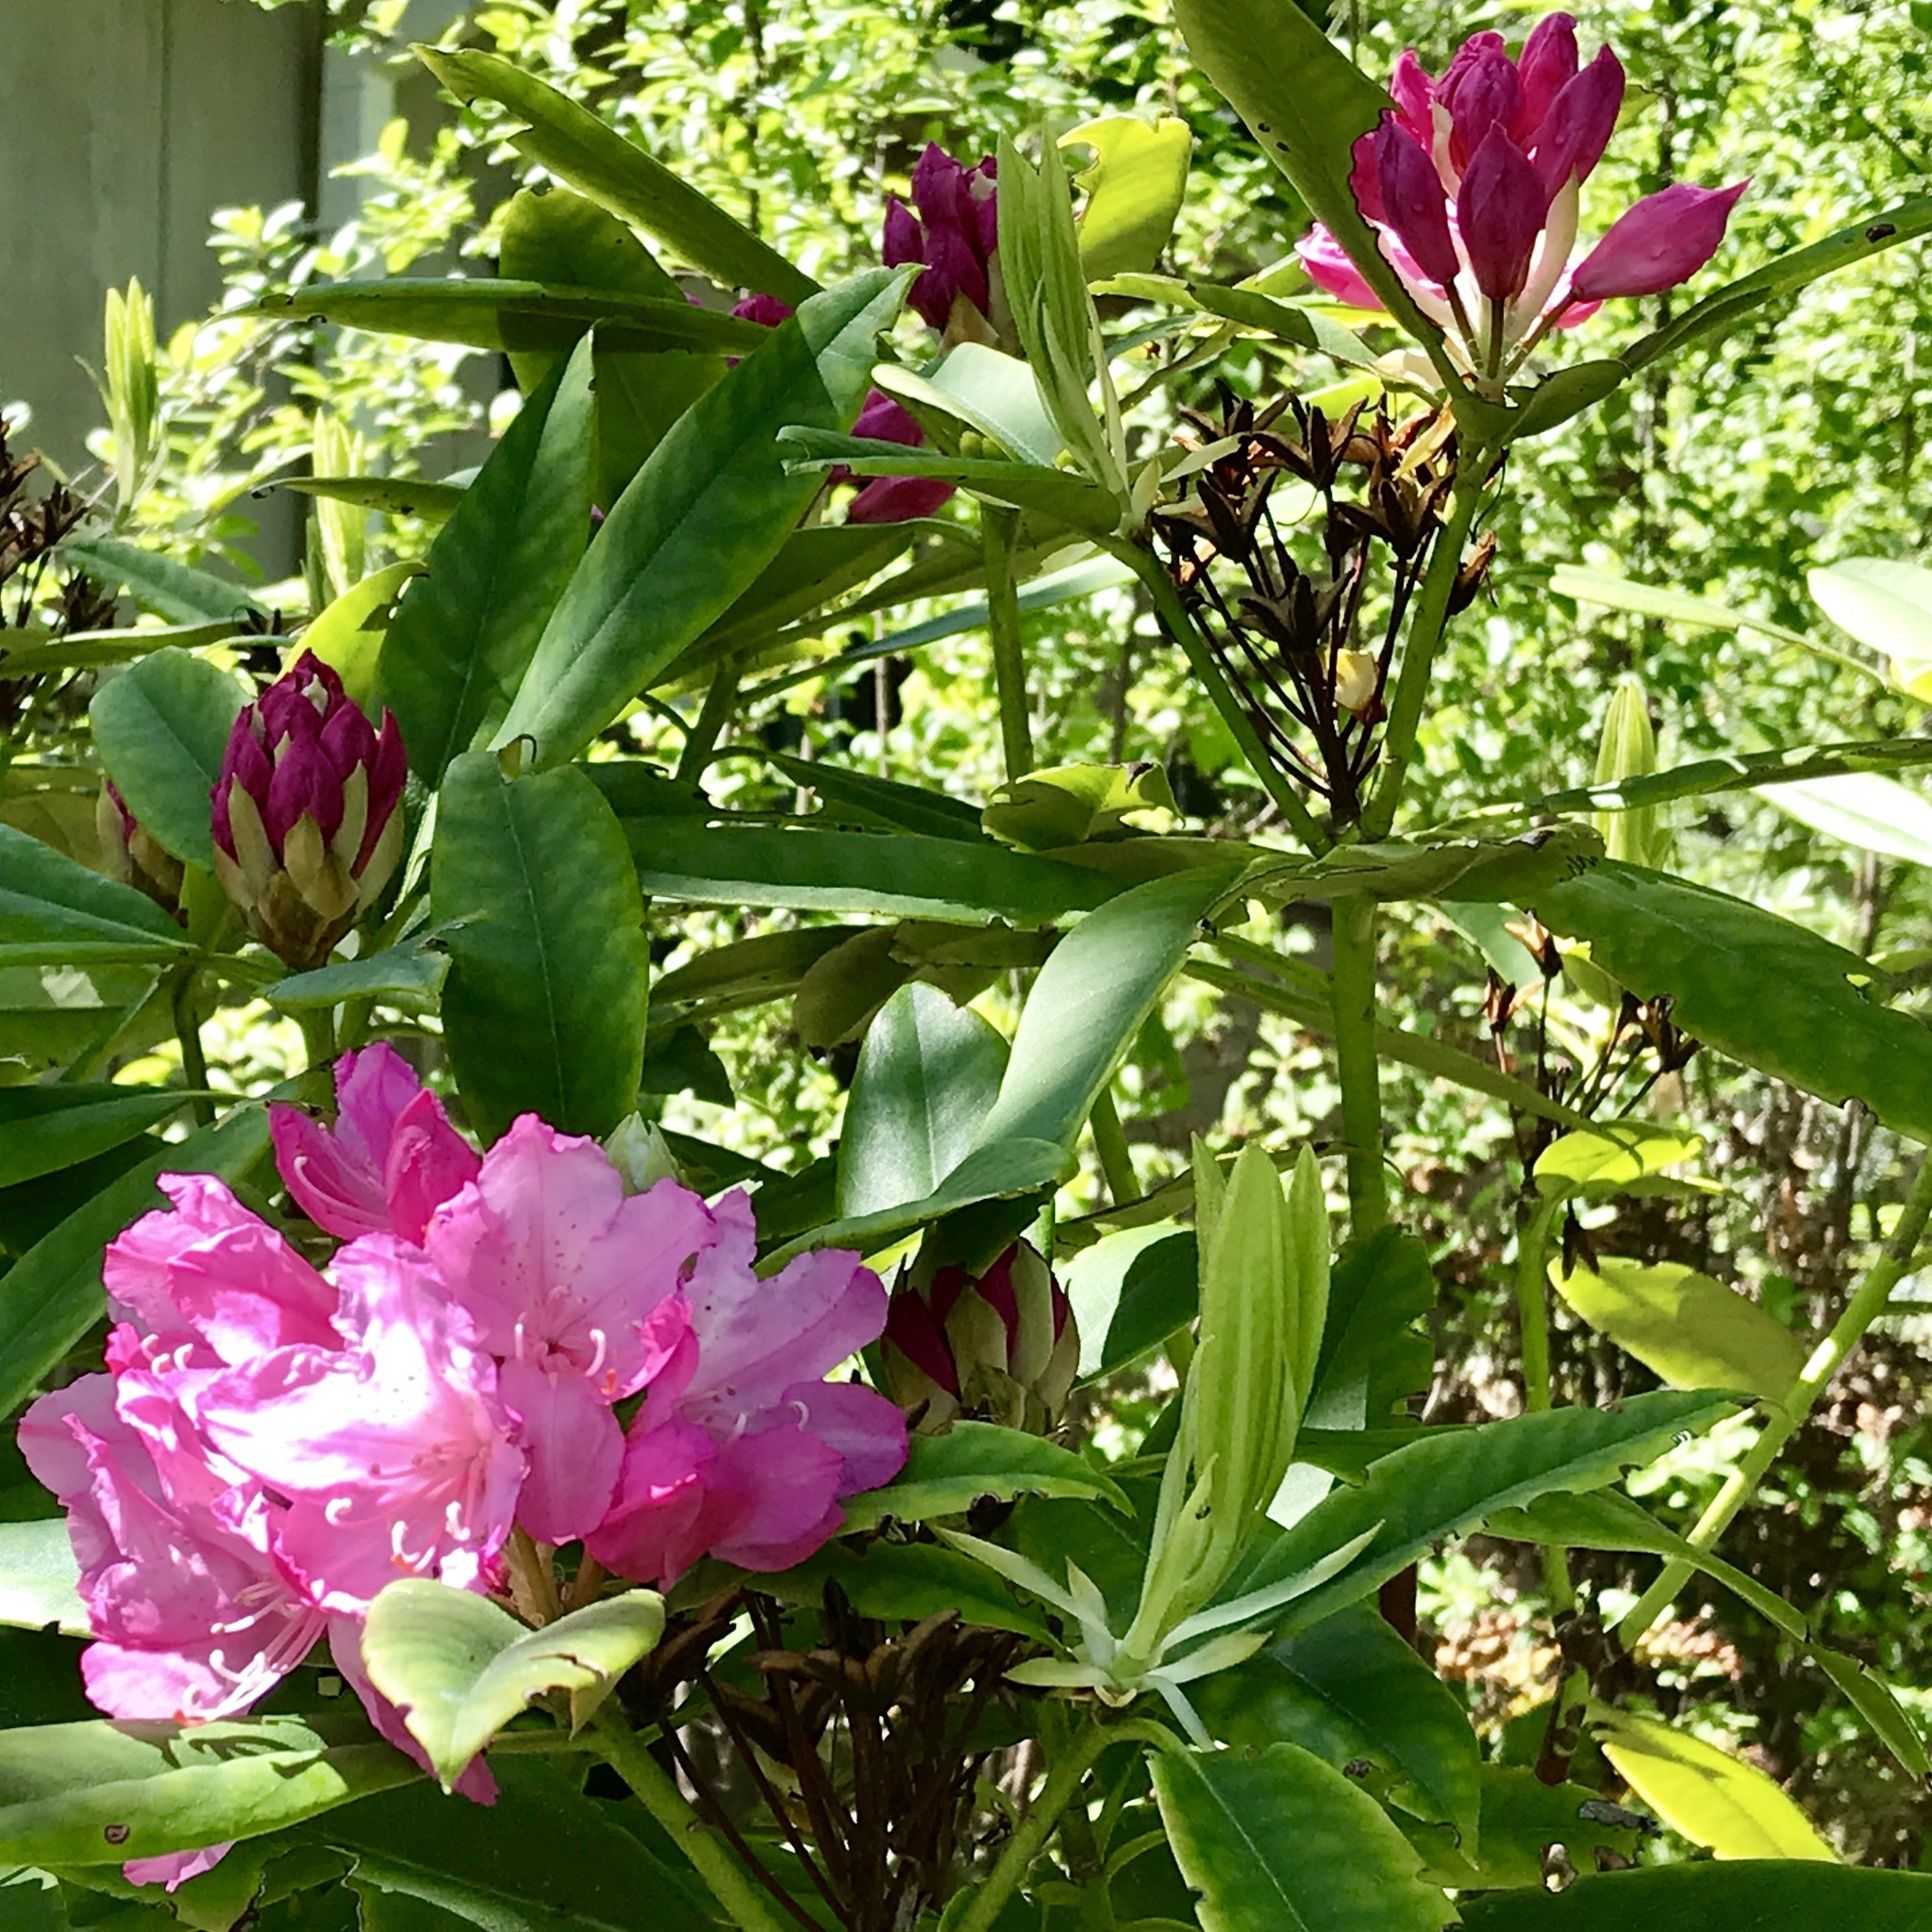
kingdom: Plantae
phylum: Tracheophyta
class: Magnoliopsida
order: Ericales
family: Ericaceae
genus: Rhododendron
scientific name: Rhododendron macrophyllum
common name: California rose bay
